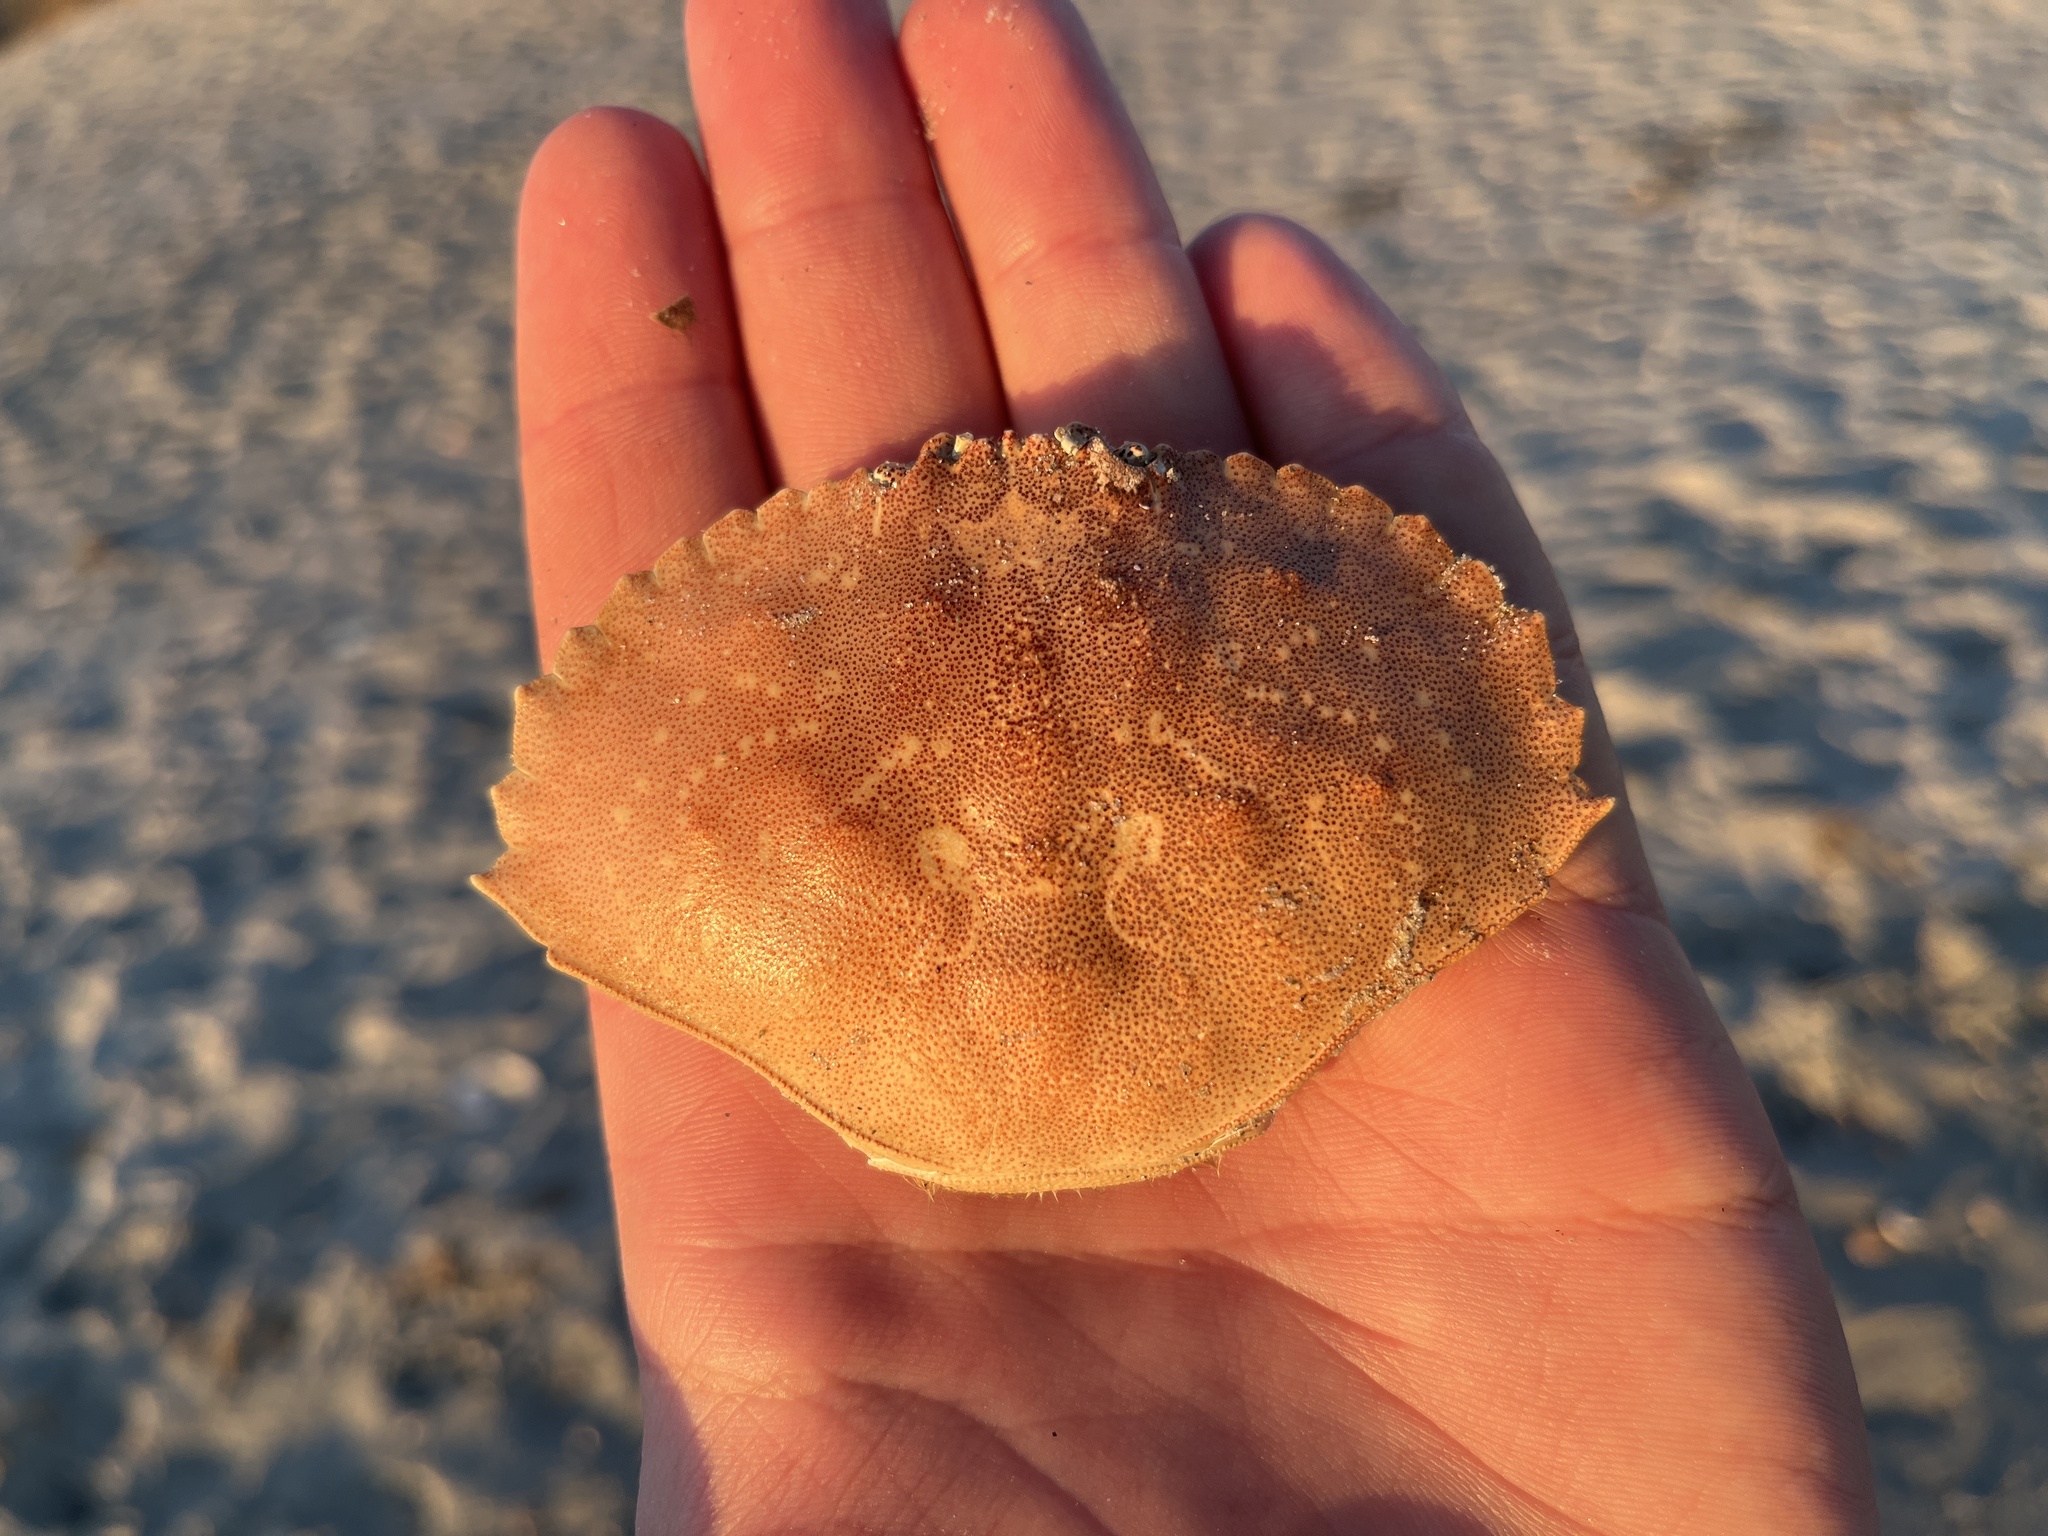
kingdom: Animalia
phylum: Arthropoda
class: Malacostraca
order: Decapoda
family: Cancridae
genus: Cancer
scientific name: Cancer irroratus
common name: Atlantic rock crab
